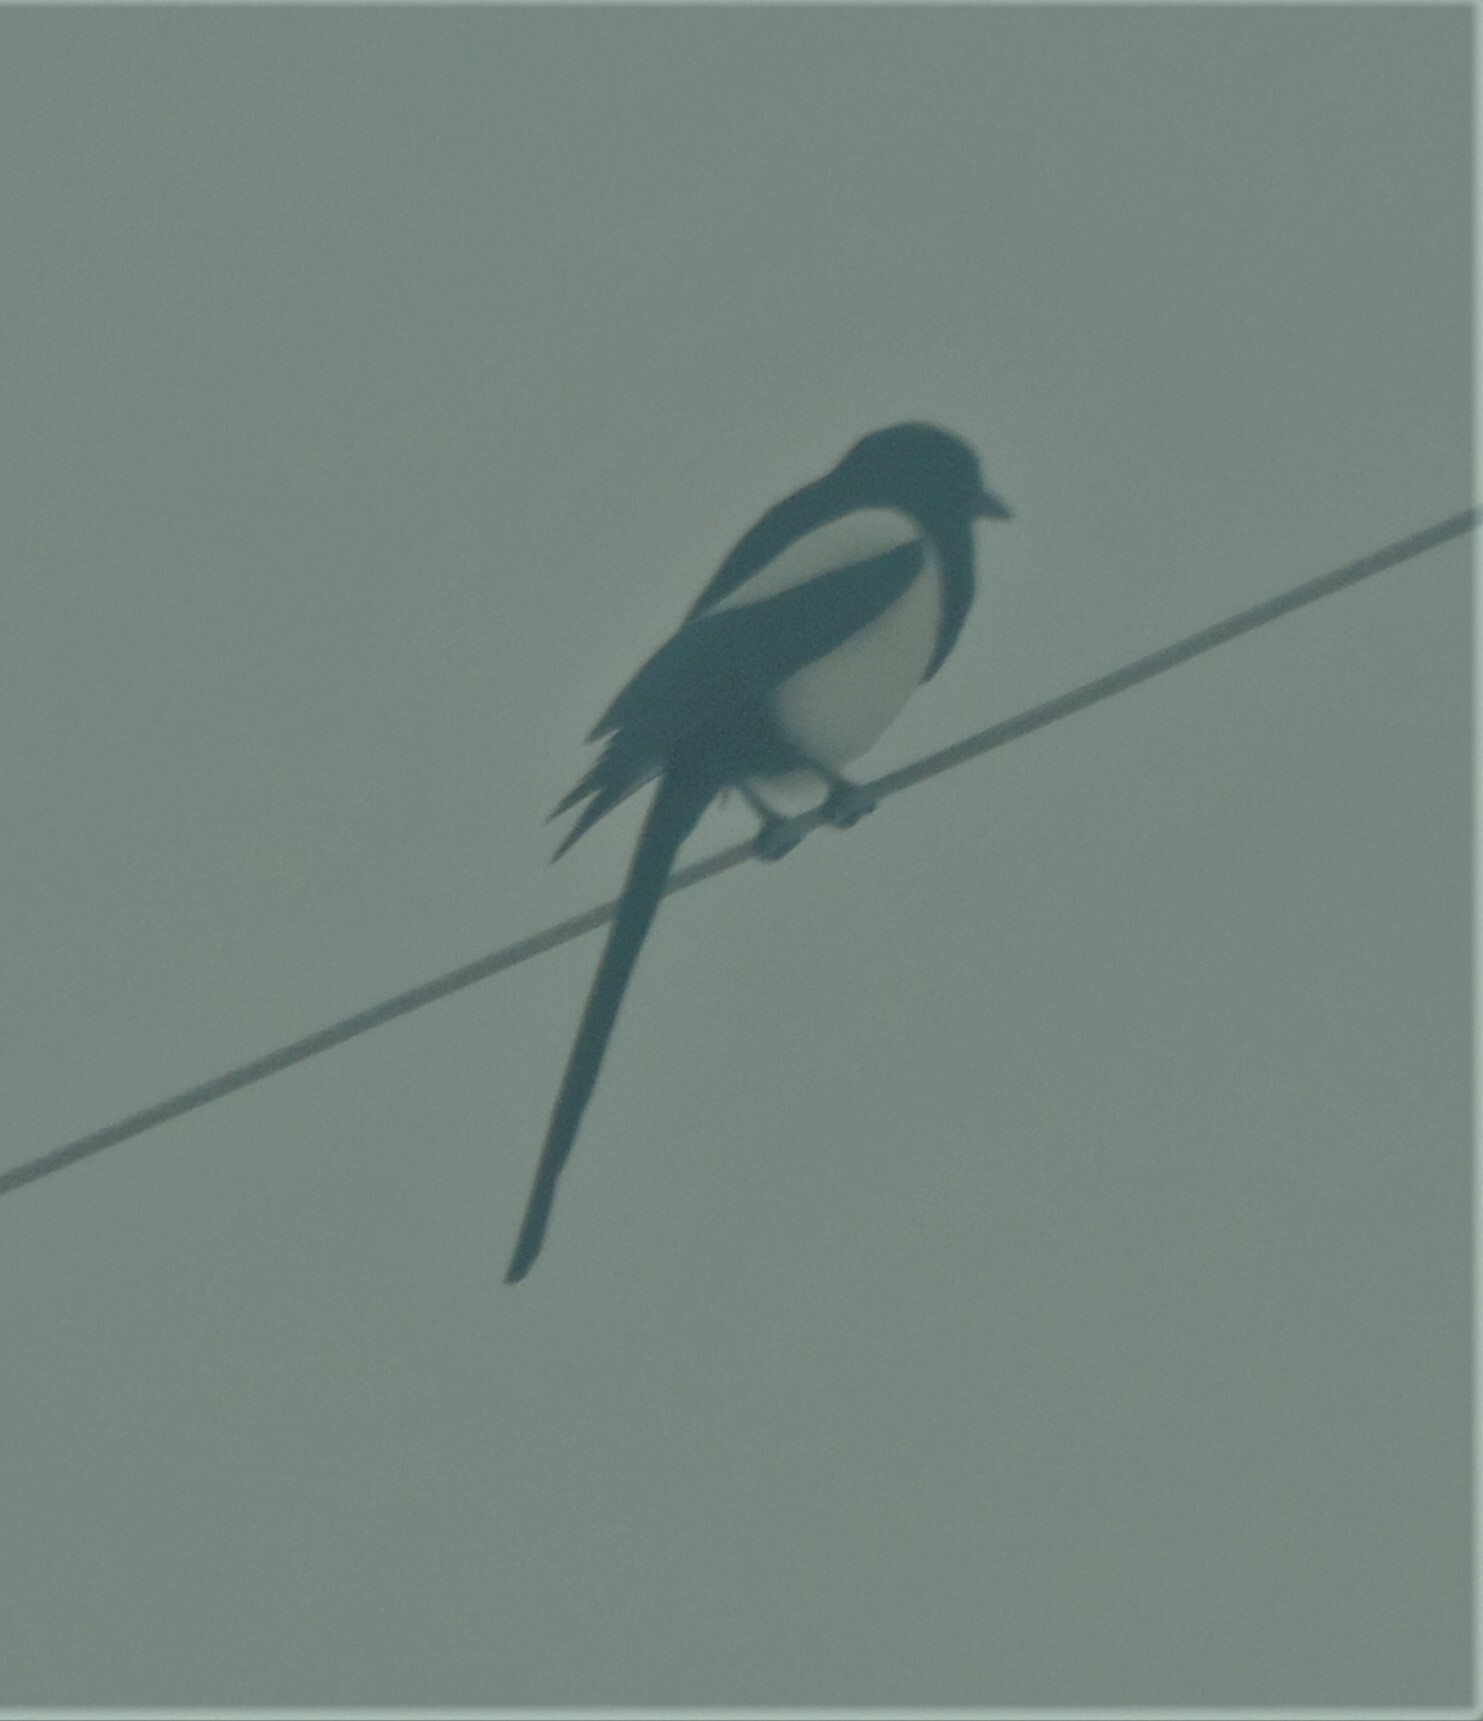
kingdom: Animalia
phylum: Chordata
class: Aves
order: Passeriformes
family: Corvidae
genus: Pica
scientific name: Pica hudsonia
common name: Black-billed magpie
